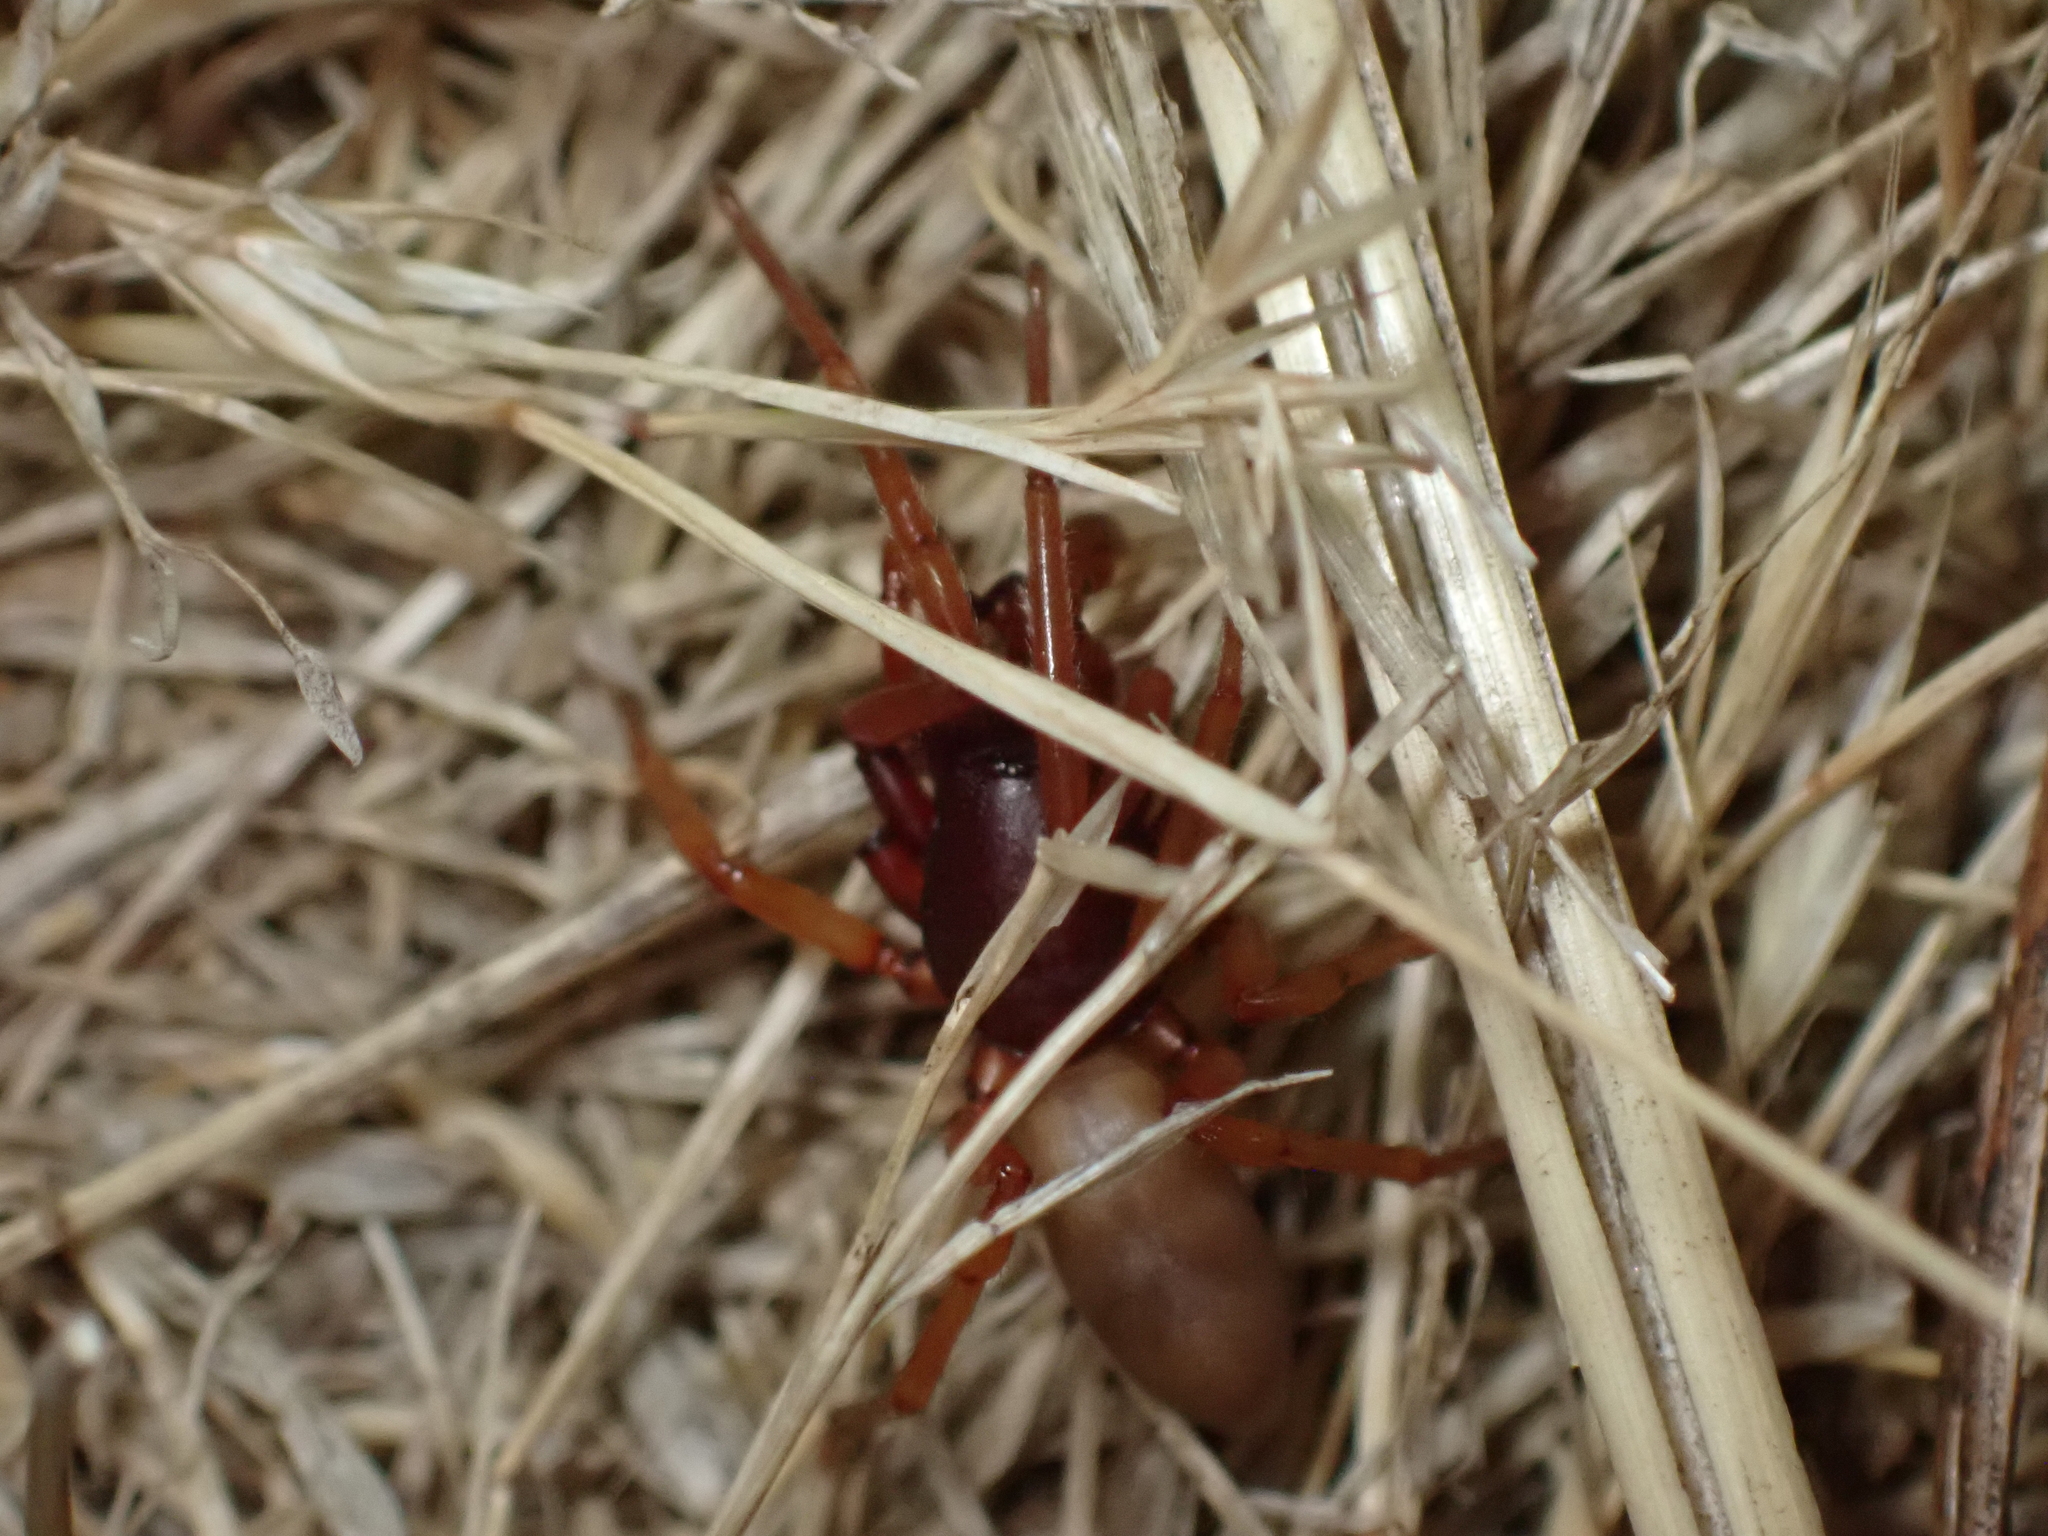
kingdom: Animalia
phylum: Arthropoda
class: Arachnida
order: Araneae
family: Dysderidae
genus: Dysdera
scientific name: Dysdera crocata
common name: Woodlouse spider
